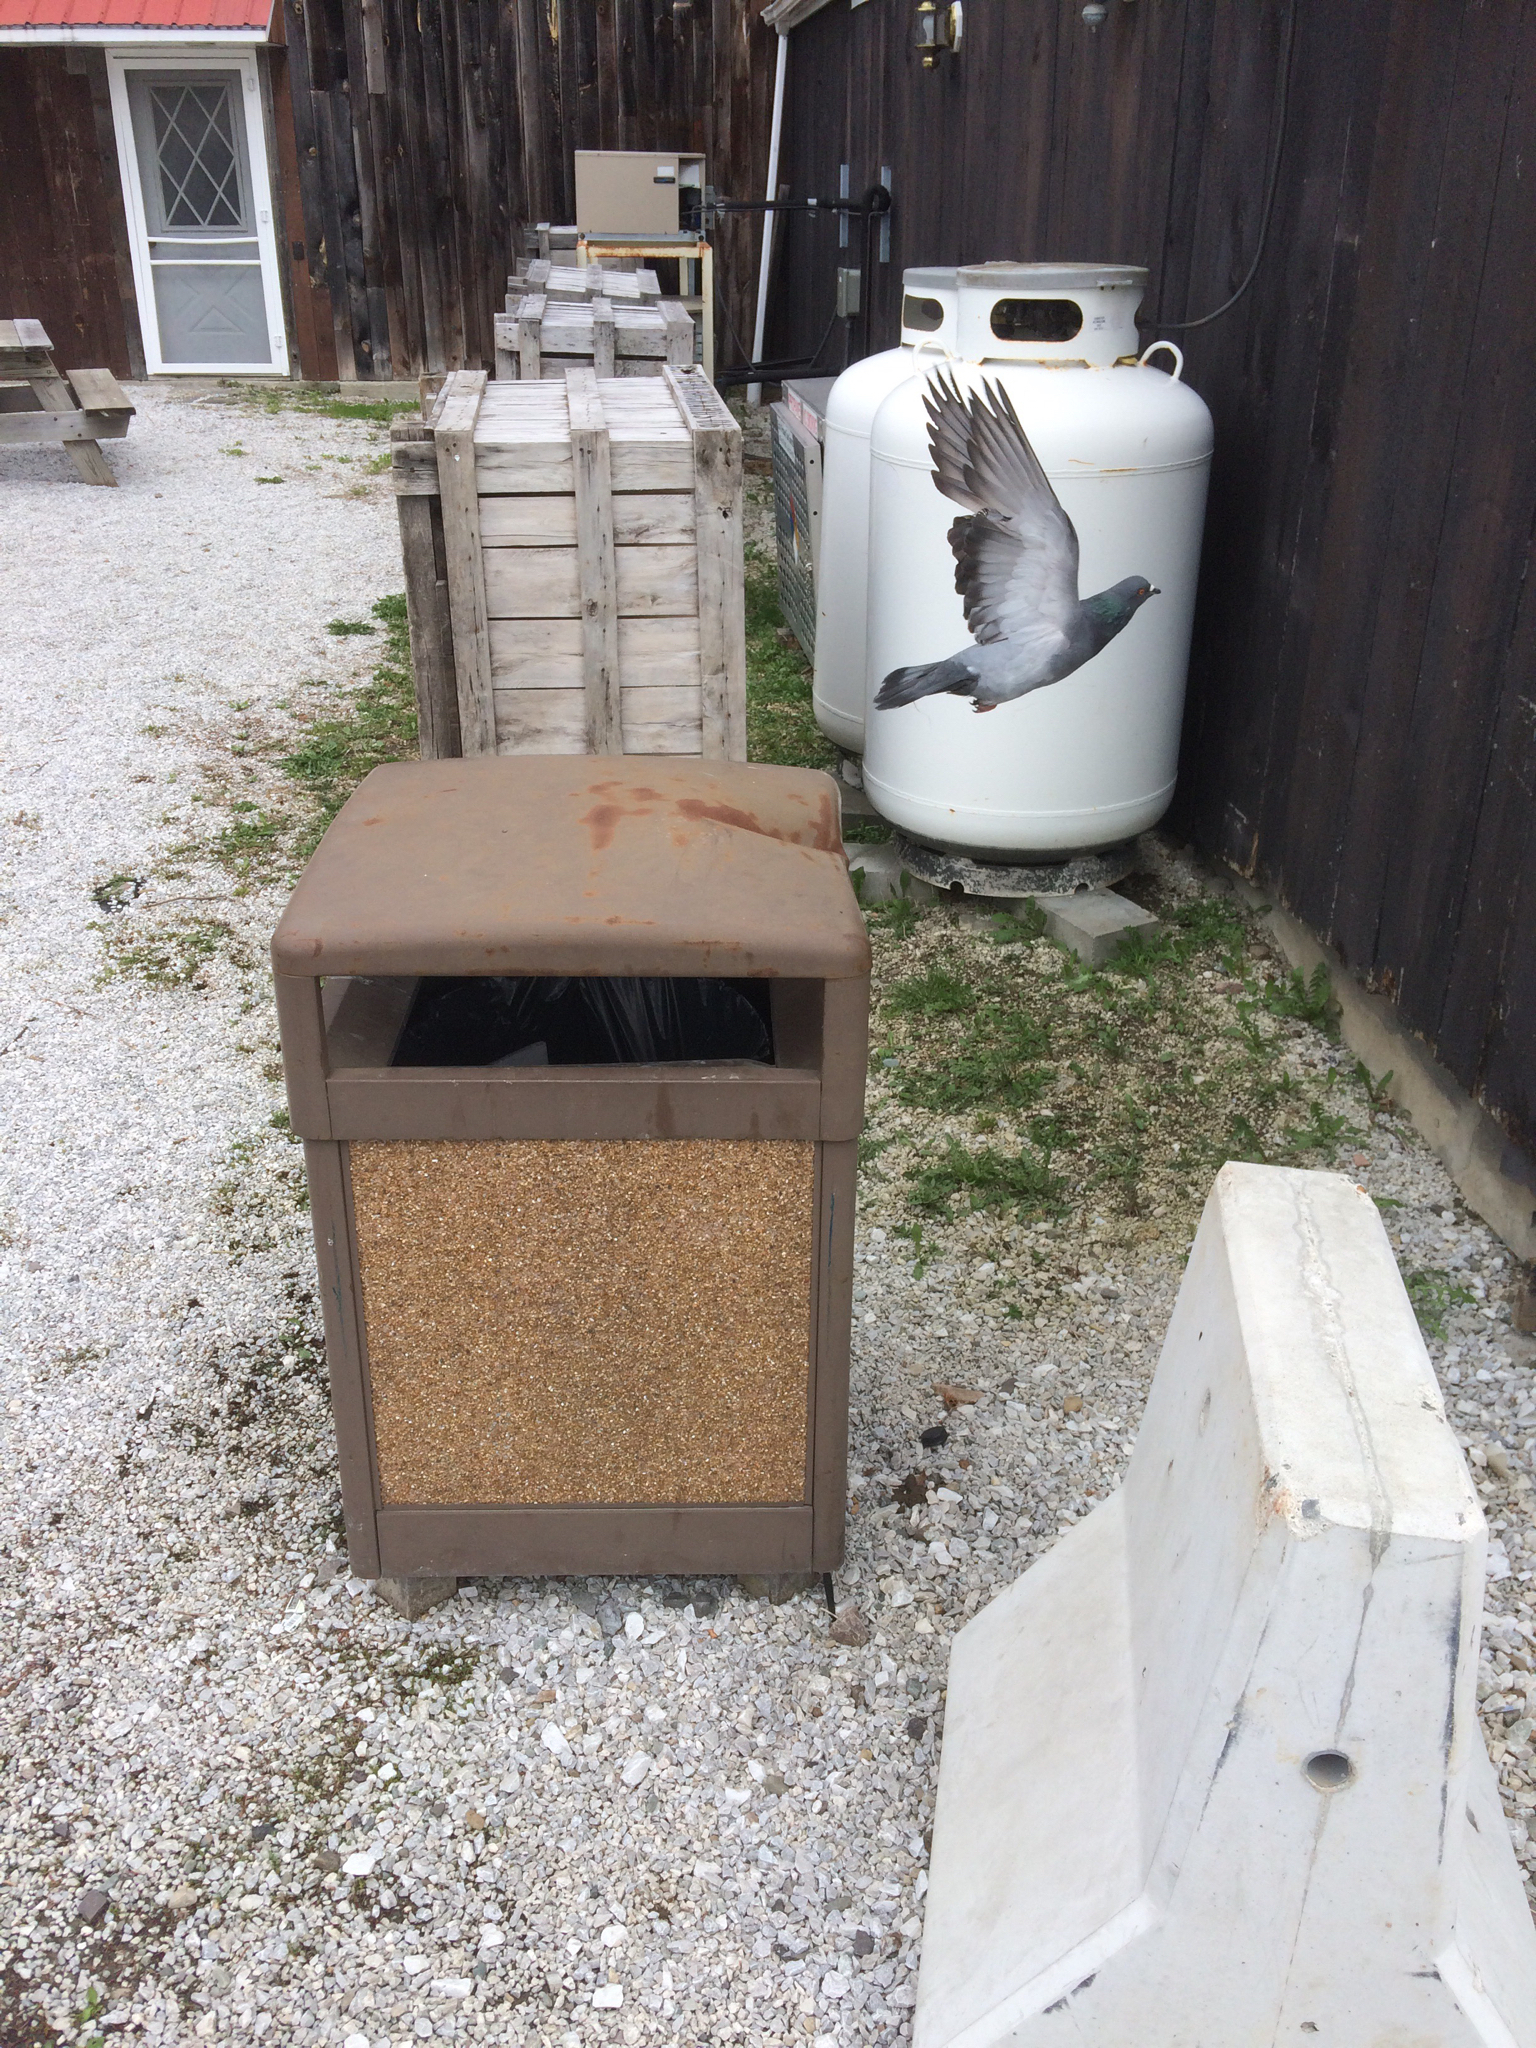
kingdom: Animalia
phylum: Chordata
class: Aves
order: Columbiformes
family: Columbidae
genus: Columba
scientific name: Columba livia
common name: Rock pigeon
